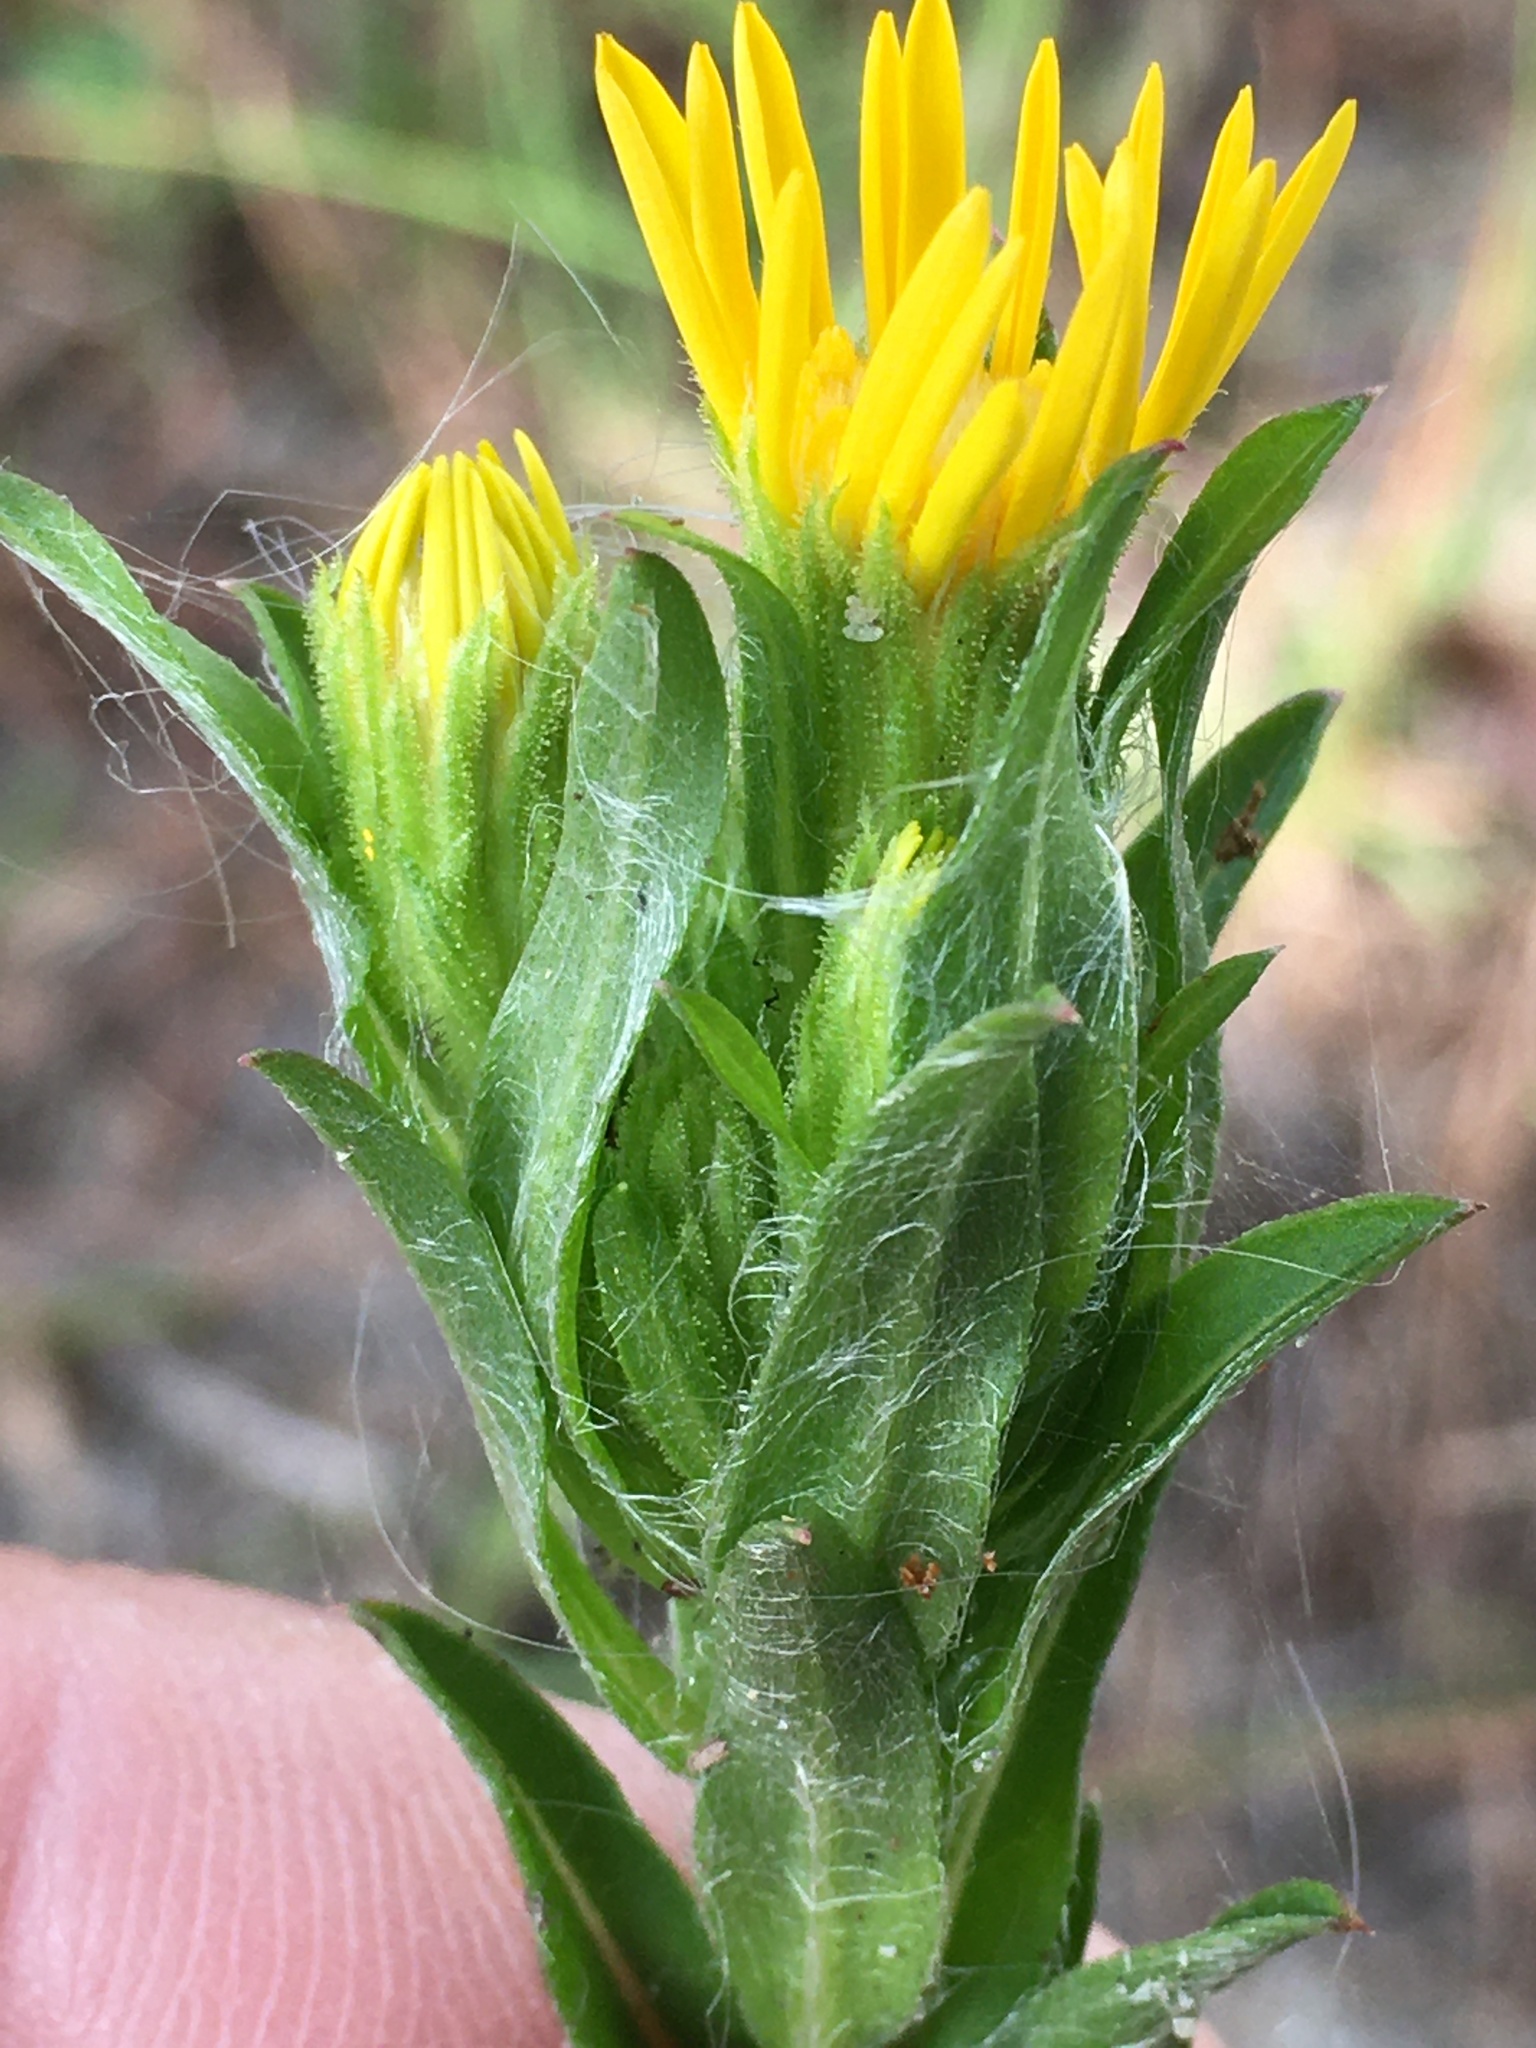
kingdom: Plantae
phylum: Tracheophyta
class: Magnoliopsida
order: Asterales
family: Asteraceae
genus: Chrysopsis
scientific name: Chrysopsis mariana
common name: Maryland golden-aster
